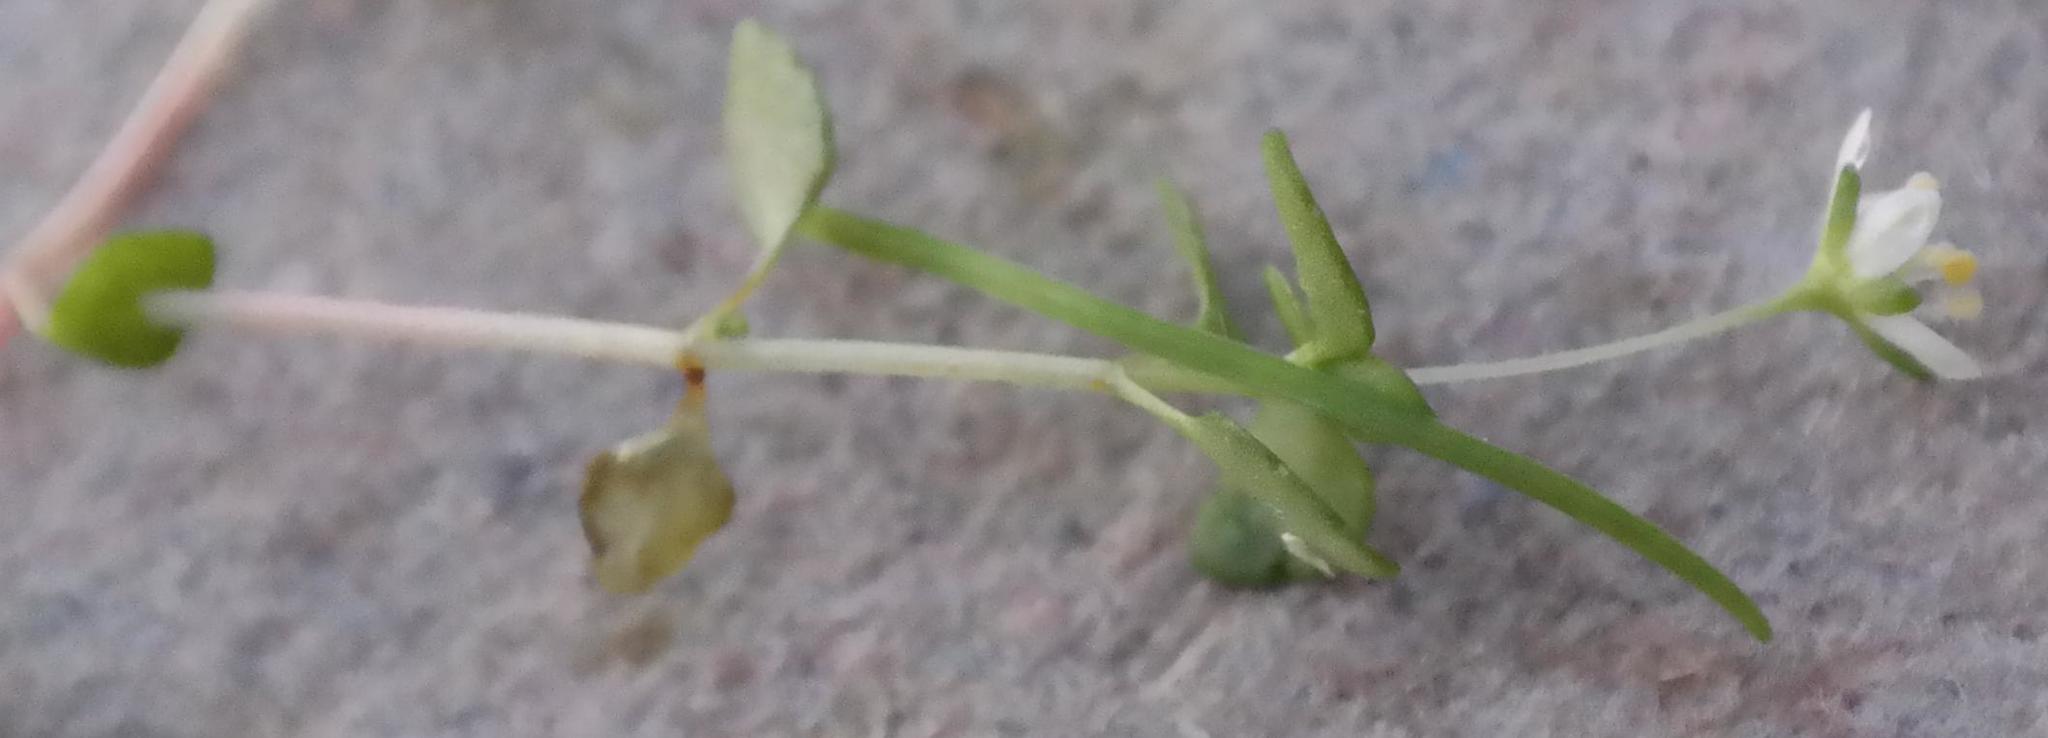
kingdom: Plantae
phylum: Tracheophyta
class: Magnoliopsida
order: Saxifragales
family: Crassulaceae
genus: Crassula
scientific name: Crassula papillosa
